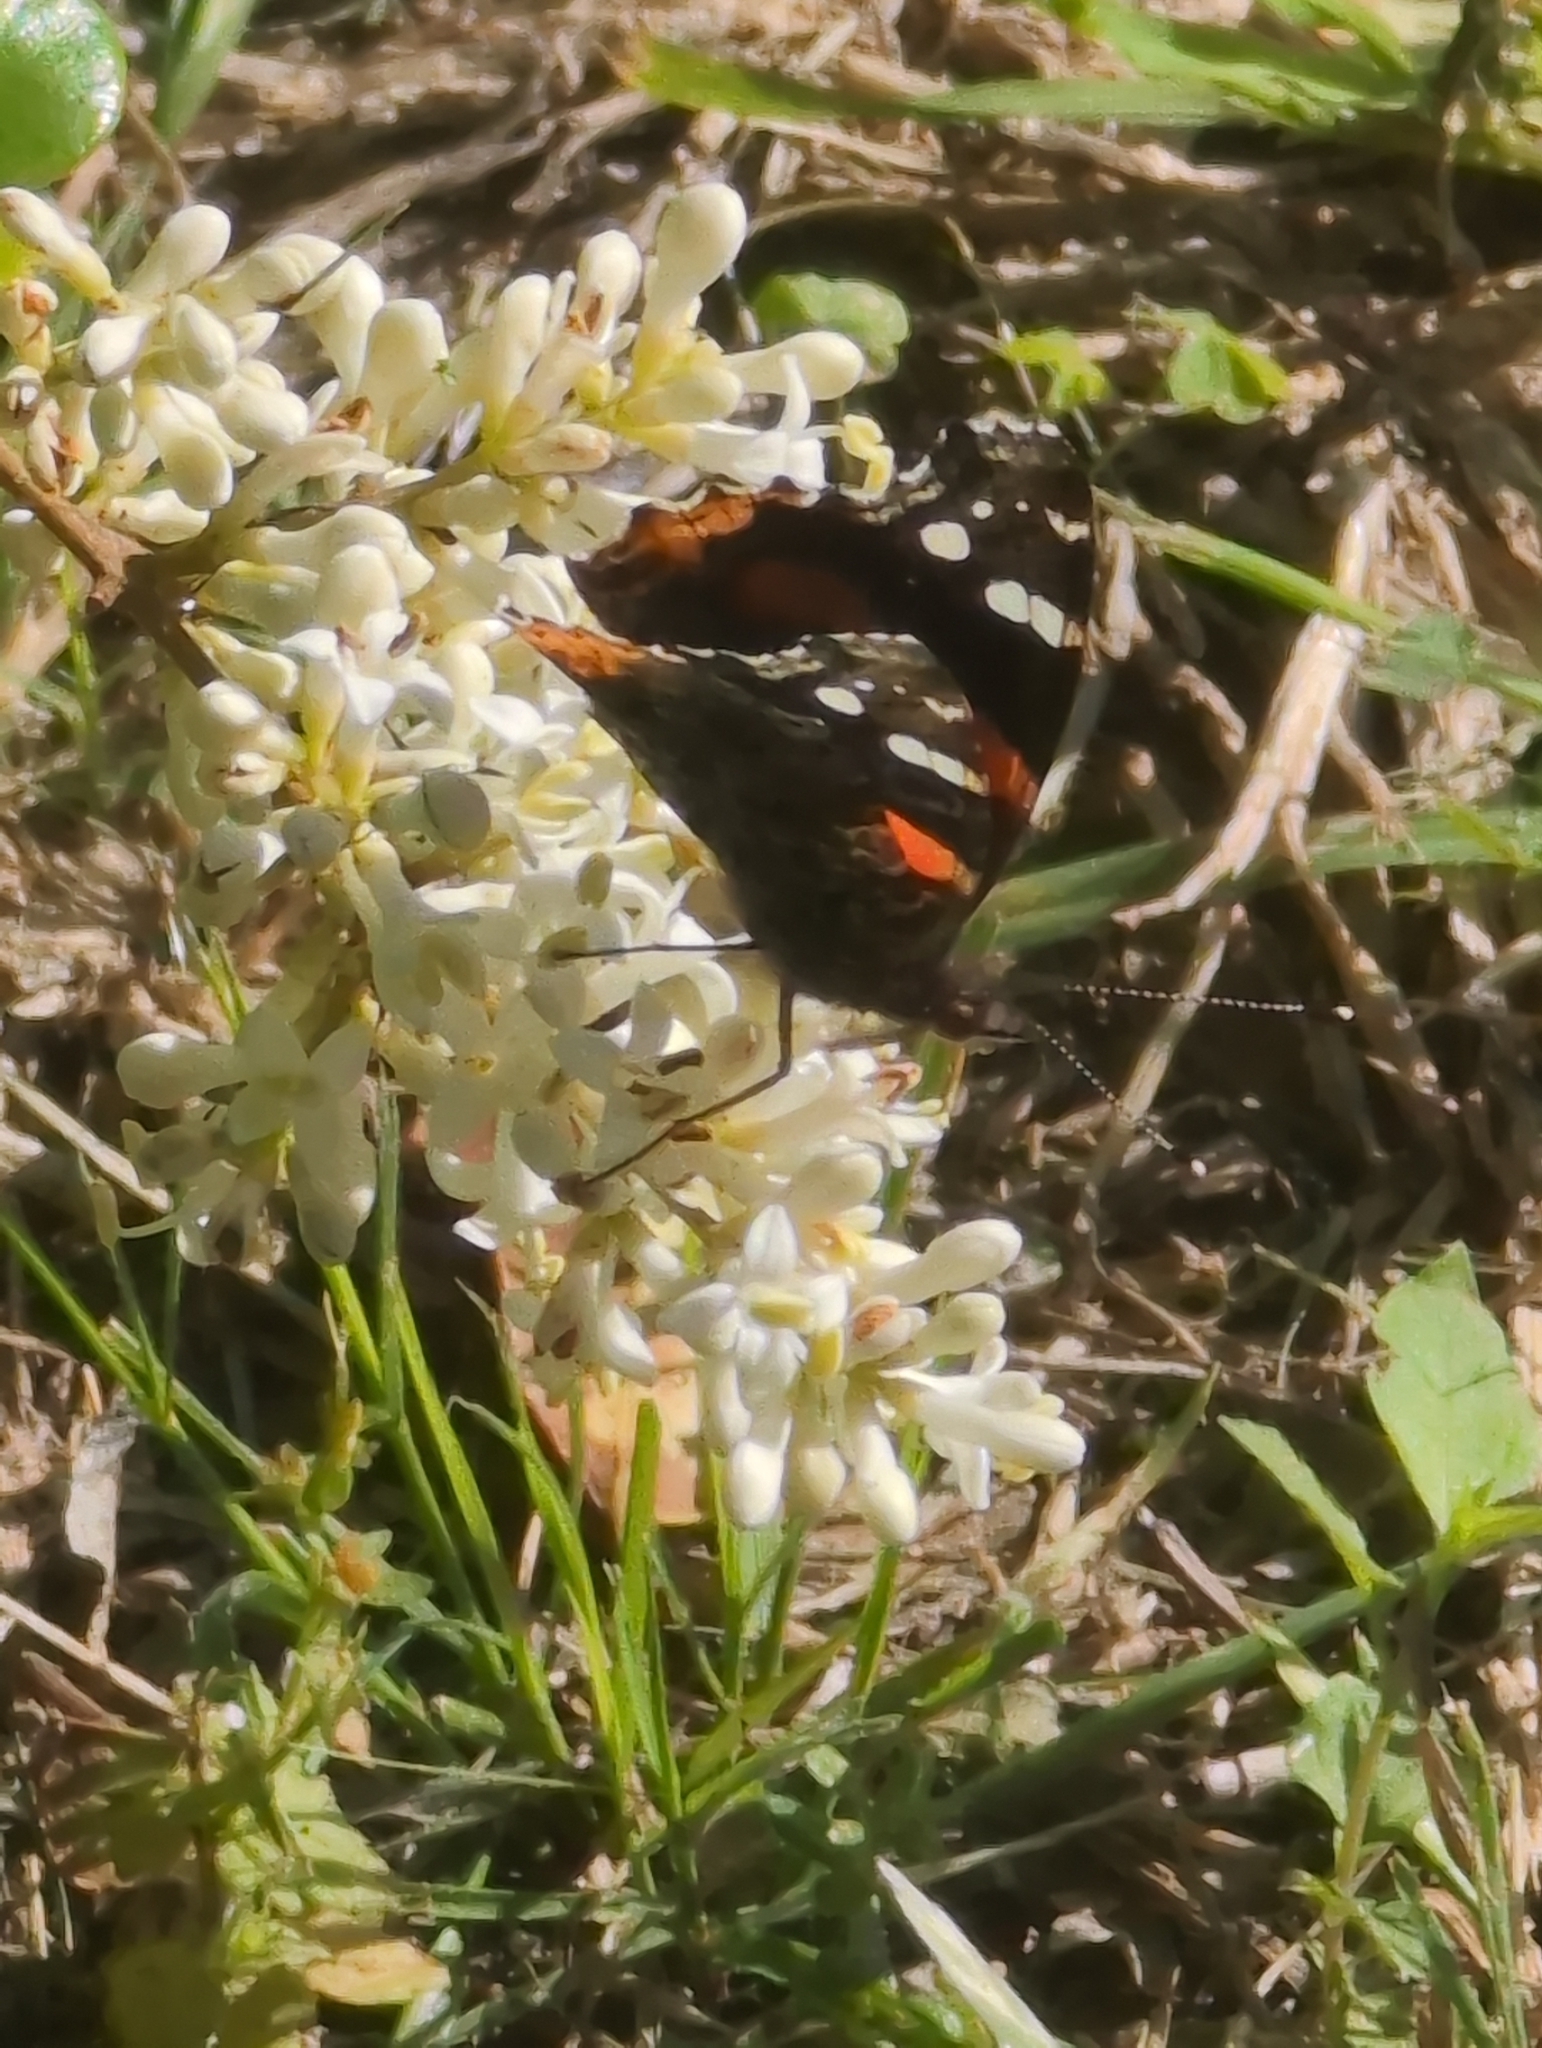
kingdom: Animalia
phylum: Arthropoda
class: Insecta
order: Lepidoptera
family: Nymphalidae
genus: Vanessa
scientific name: Vanessa atalanta
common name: Red admiral
